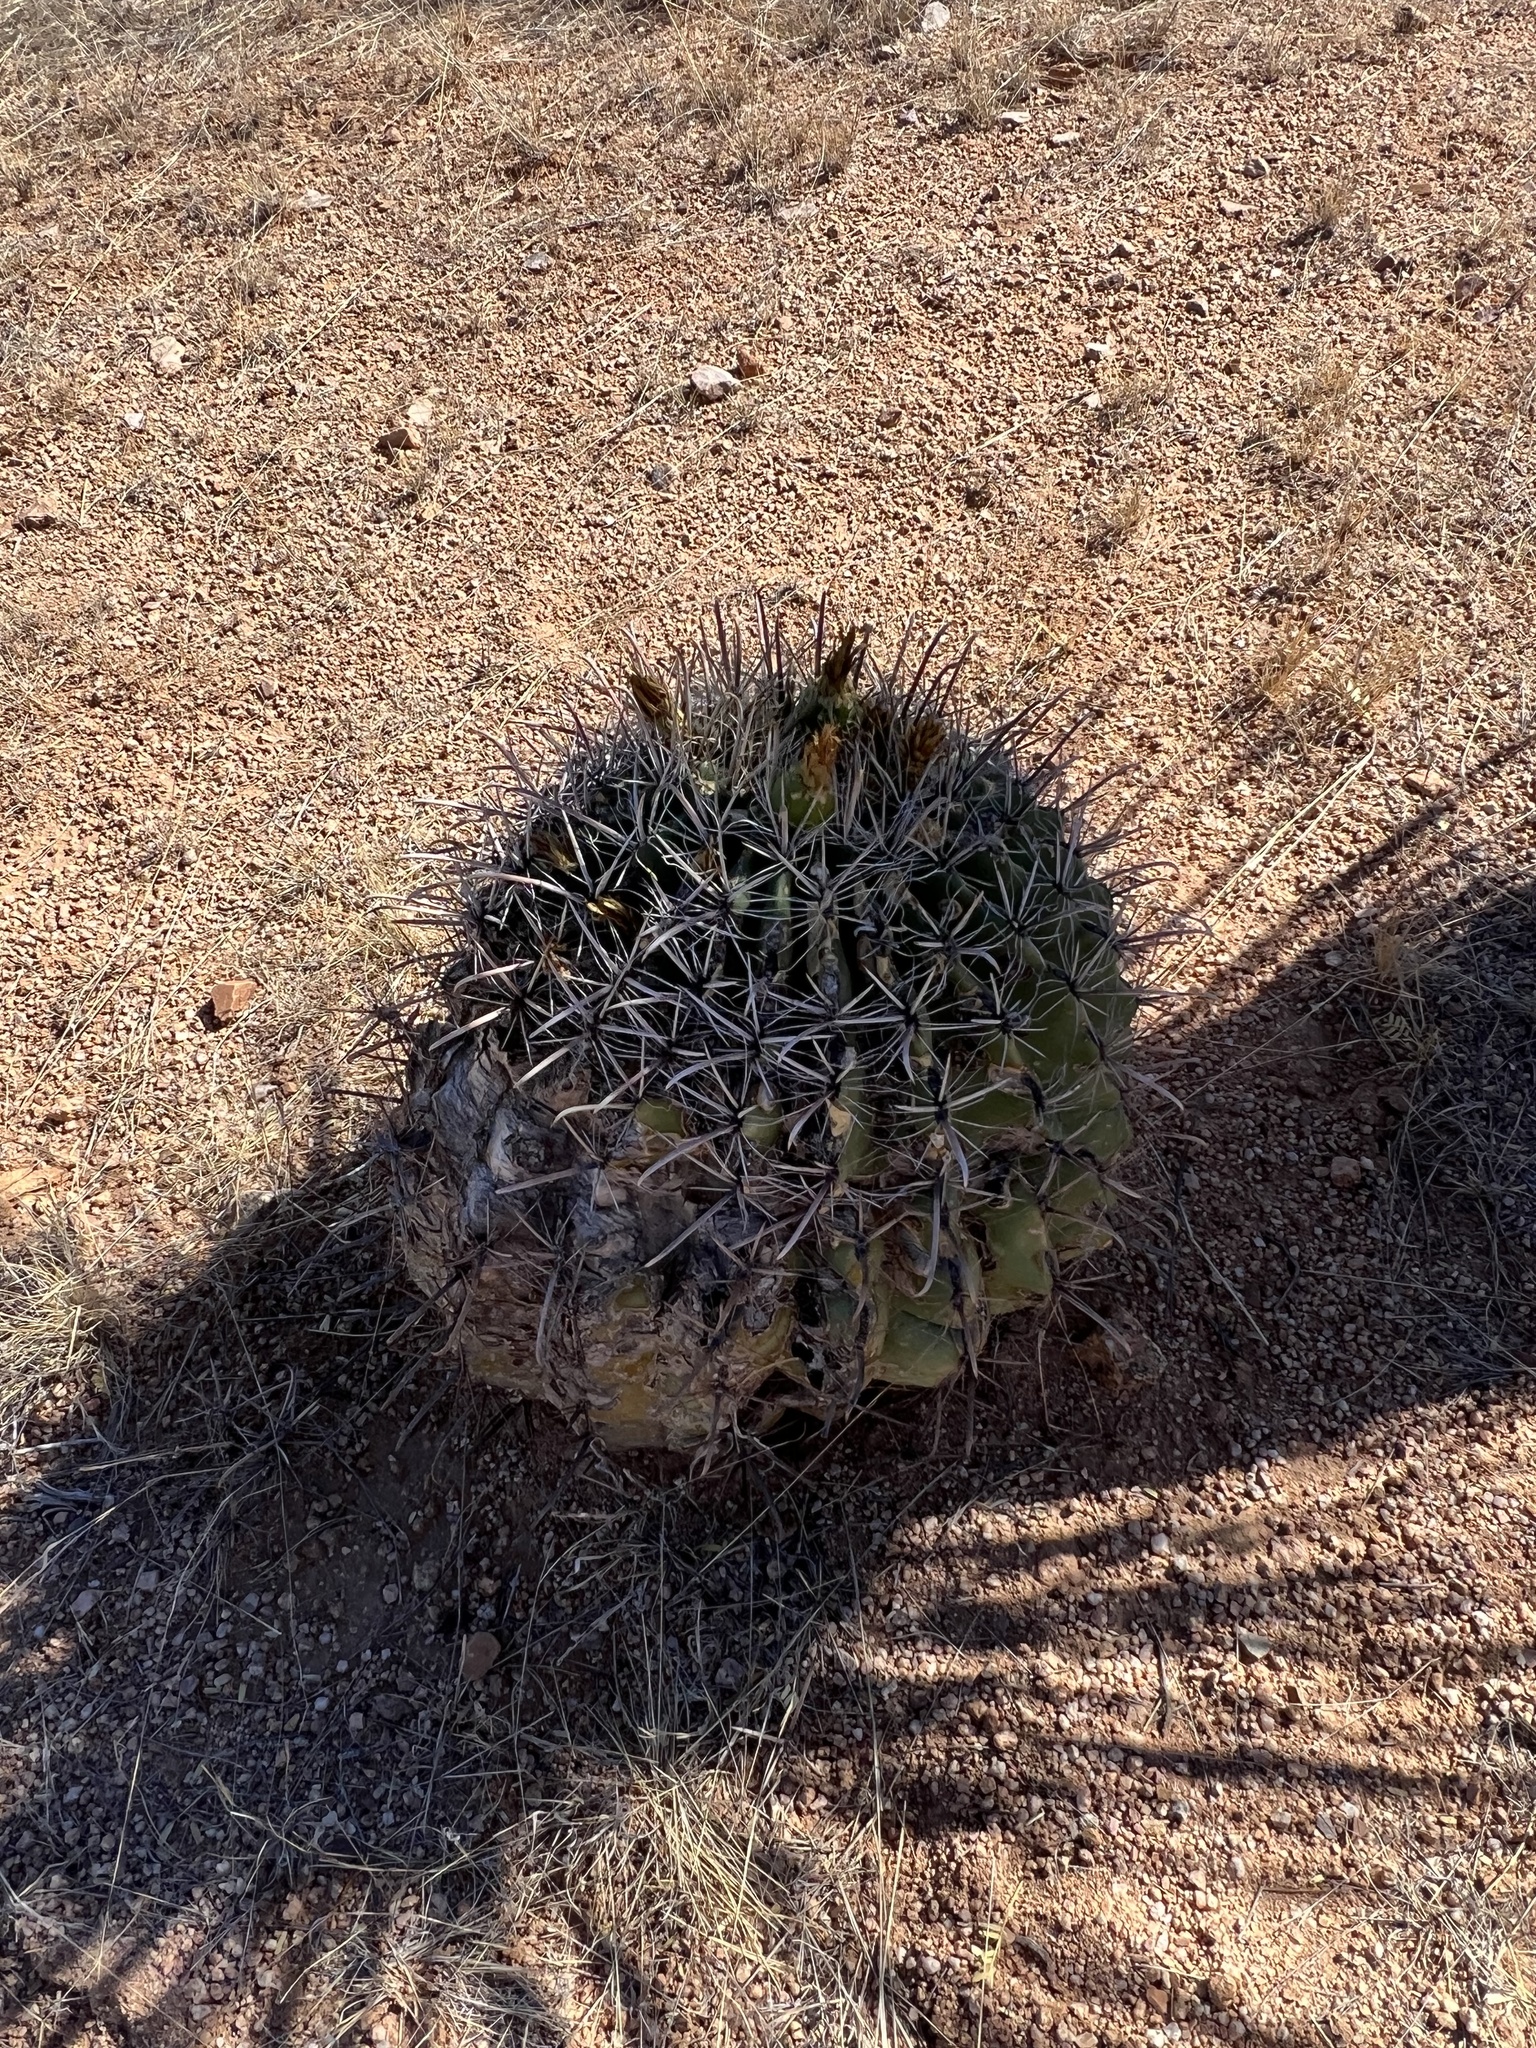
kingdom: Plantae
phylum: Tracheophyta
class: Magnoliopsida
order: Caryophyllales
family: Cactaceae
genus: Ferocactus
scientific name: Ferocactus wislizeni
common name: Candy barrel cactus
